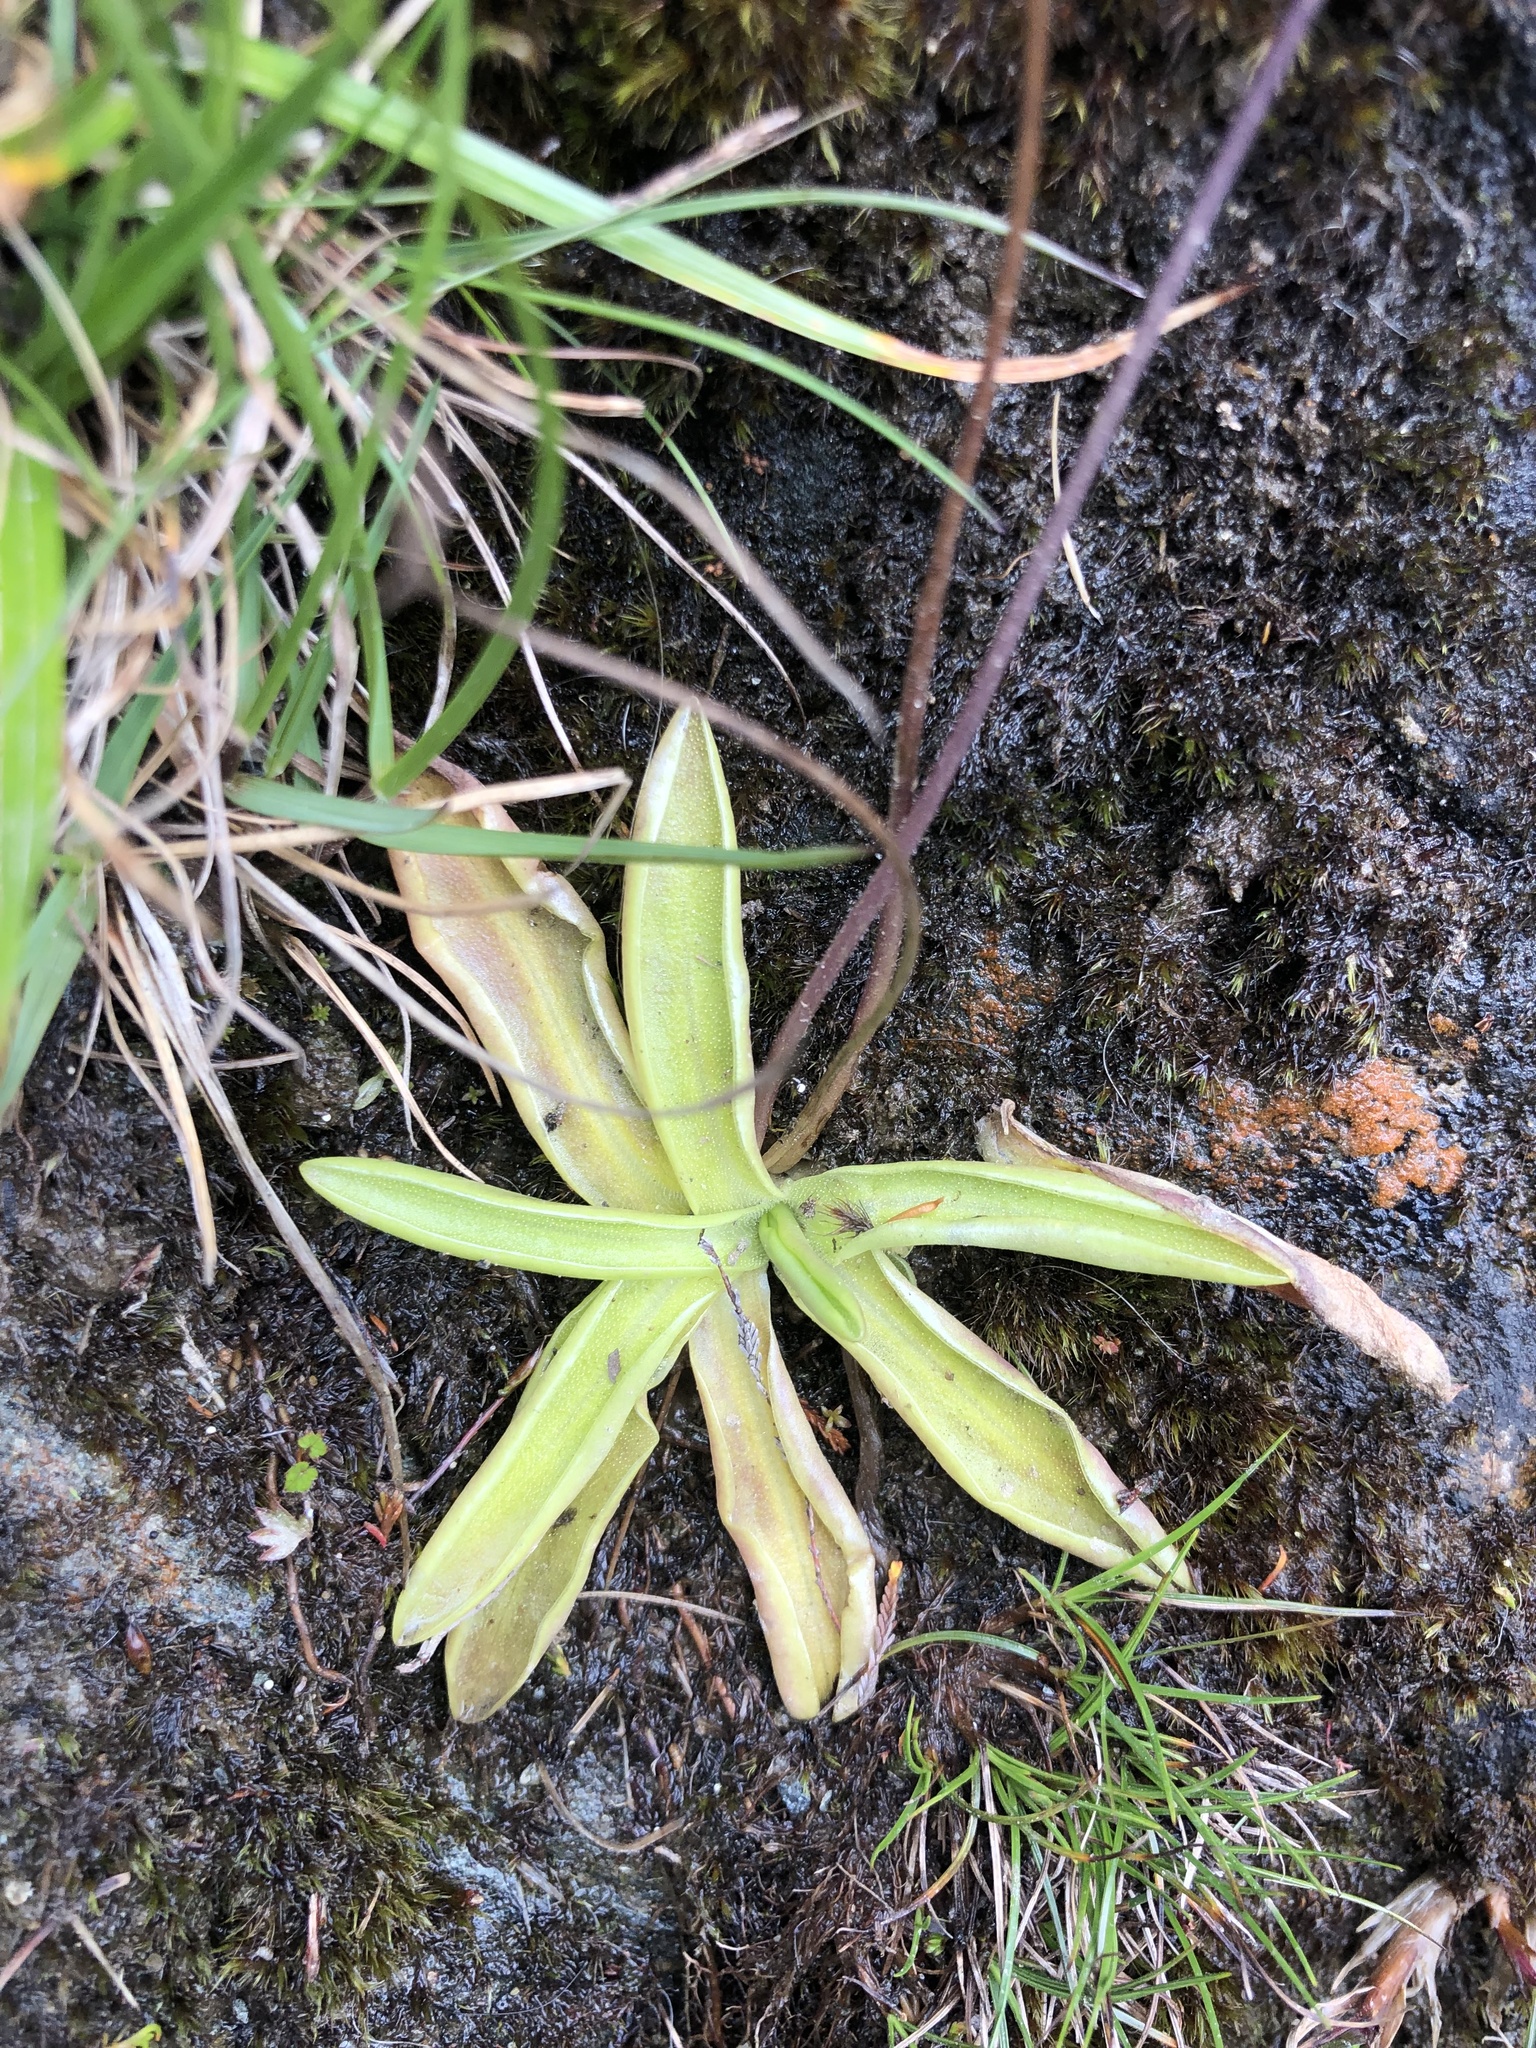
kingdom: Plantae
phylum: Tracheophyta
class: Magnoliopsida
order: Lamiales
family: Lentibulariaceae
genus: Pinguicula
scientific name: Pinguicula vulgaris
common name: Common butterwort
